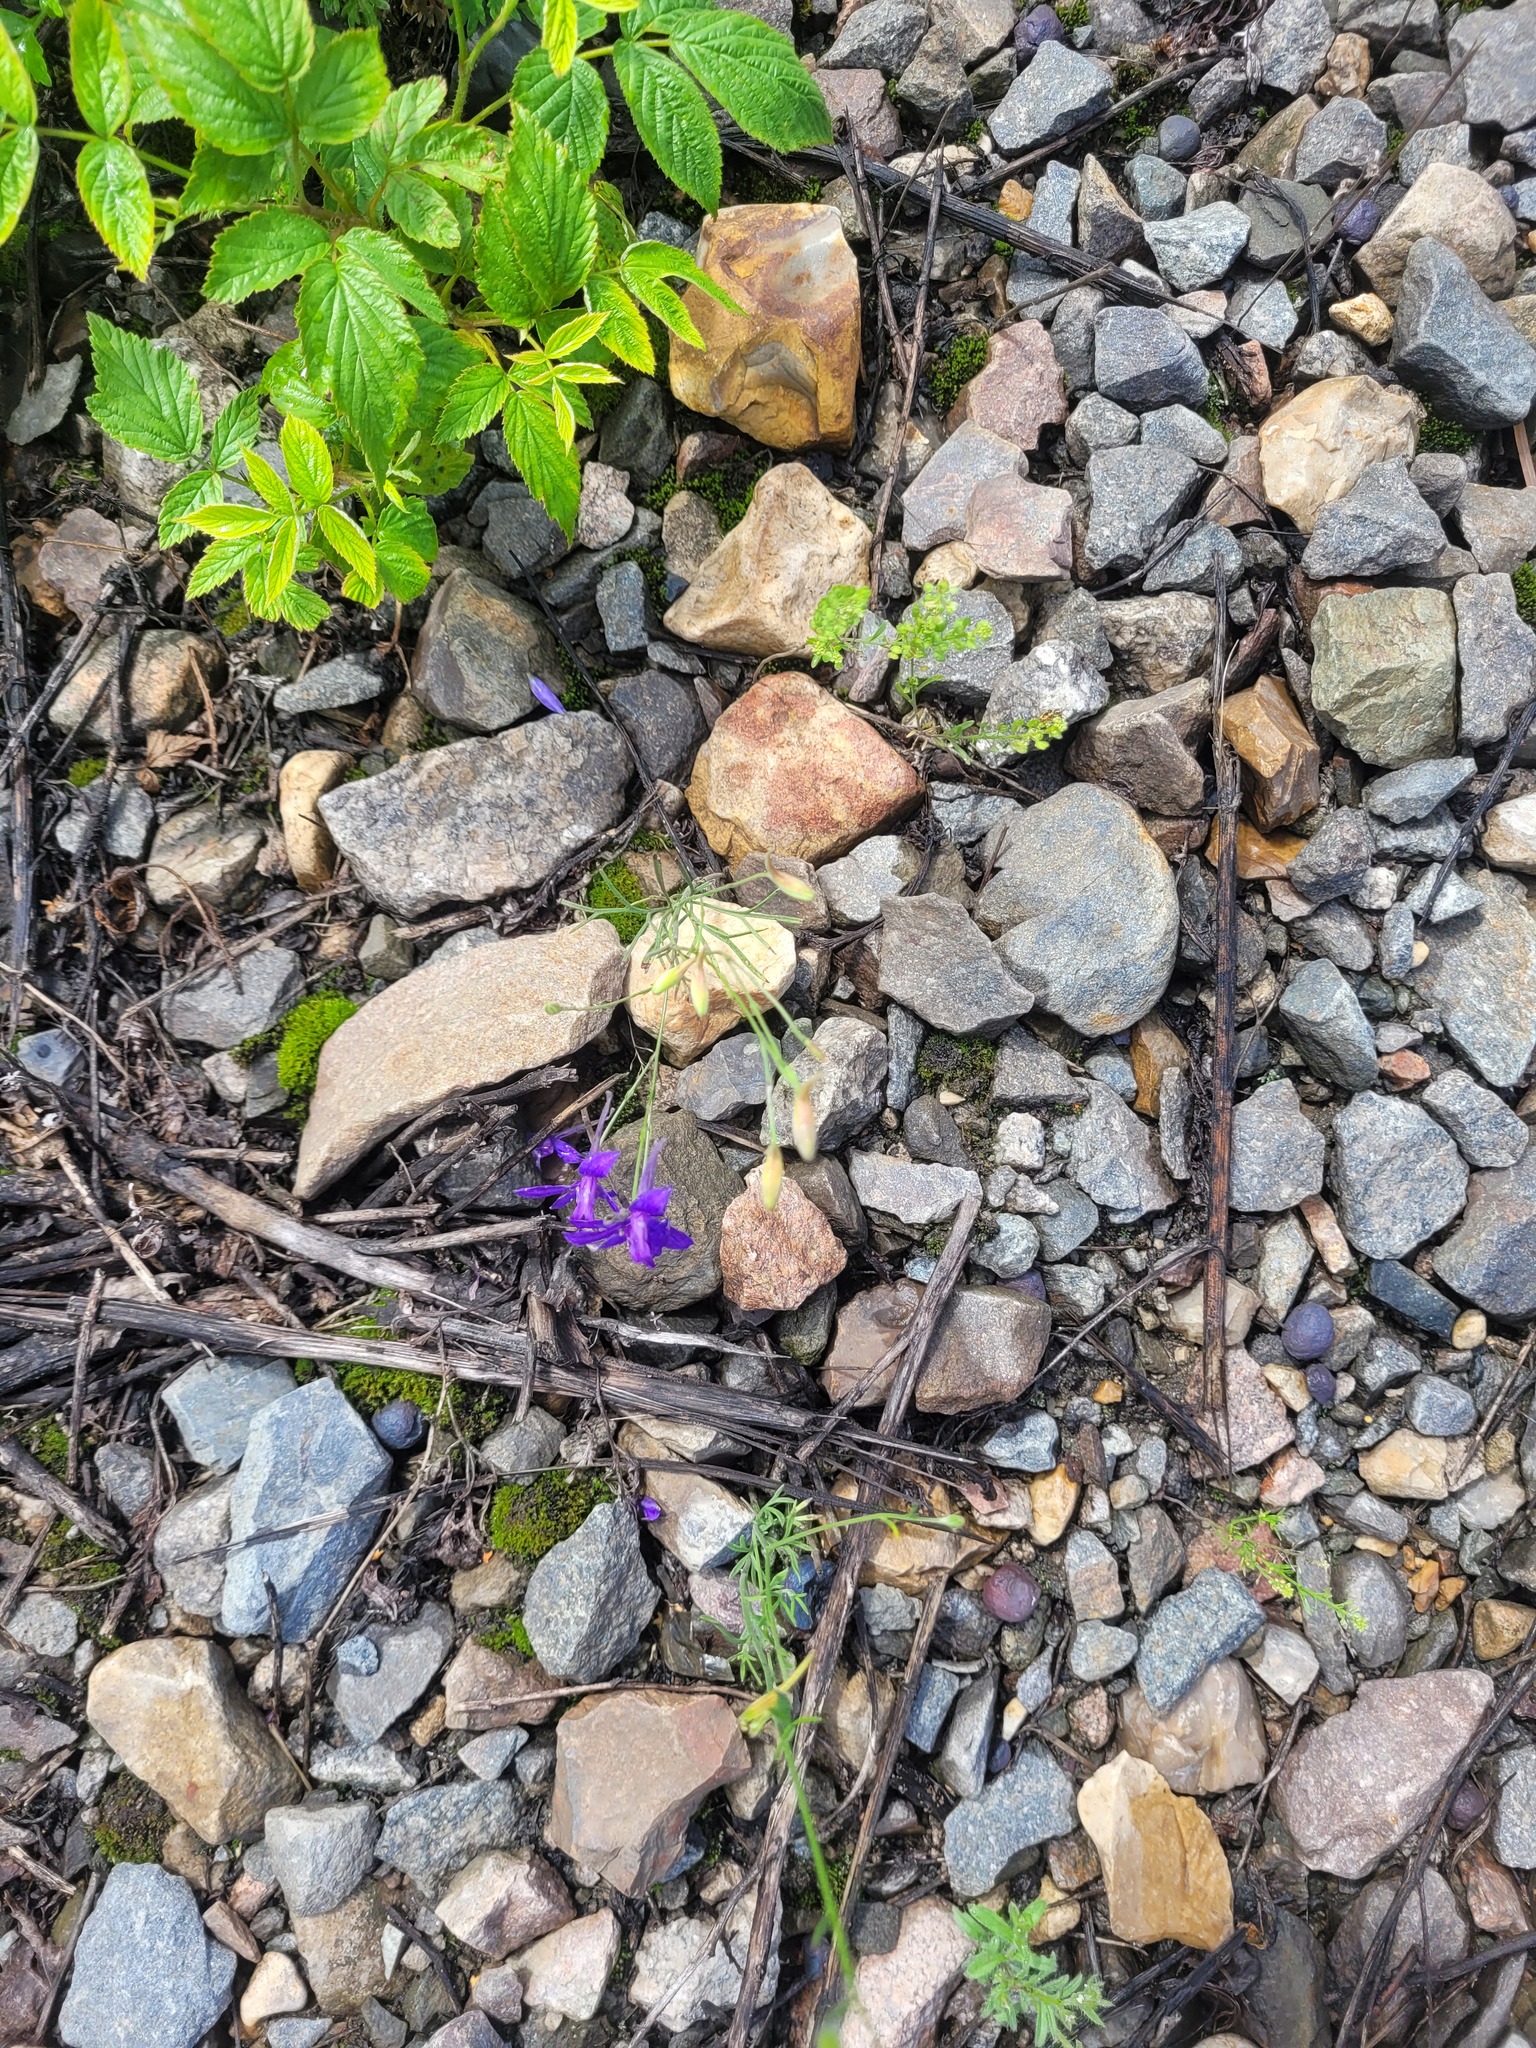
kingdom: Plantae
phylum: Tracheophyta
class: Magnoliopsida
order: Ranunculales
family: Ranunculaceae
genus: Delphinium
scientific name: Delphinium consolida
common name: Branching larkspur
